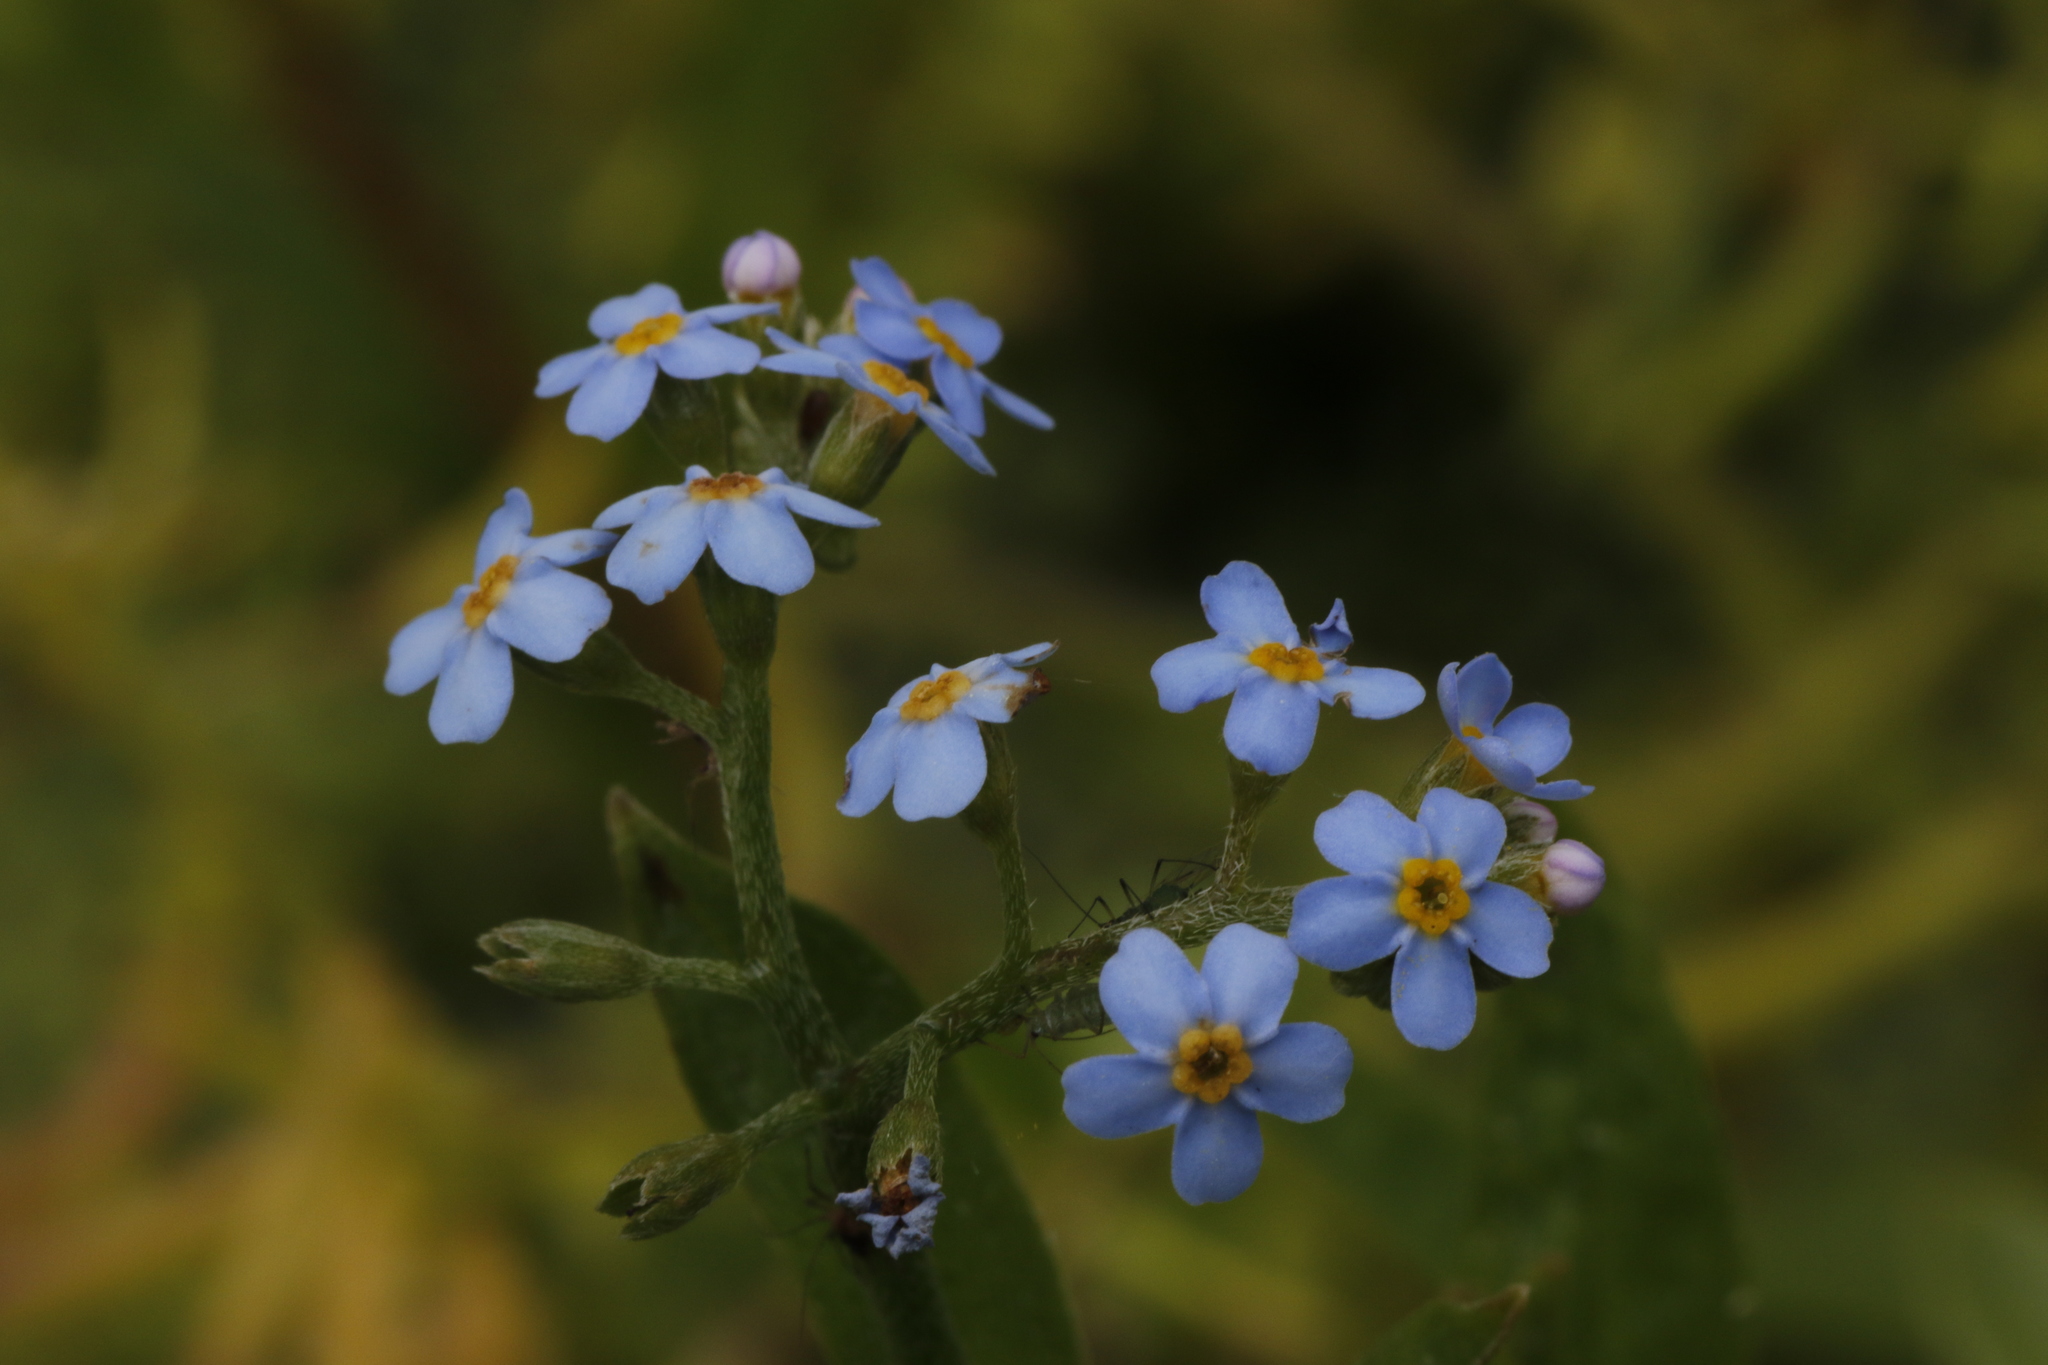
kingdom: Plantae
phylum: Tracheophyta
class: Magnoliopsida
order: Boraginales
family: Boraginaceae
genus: Myosotis
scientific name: Myosotis scorpioides
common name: Water forget-me-not
